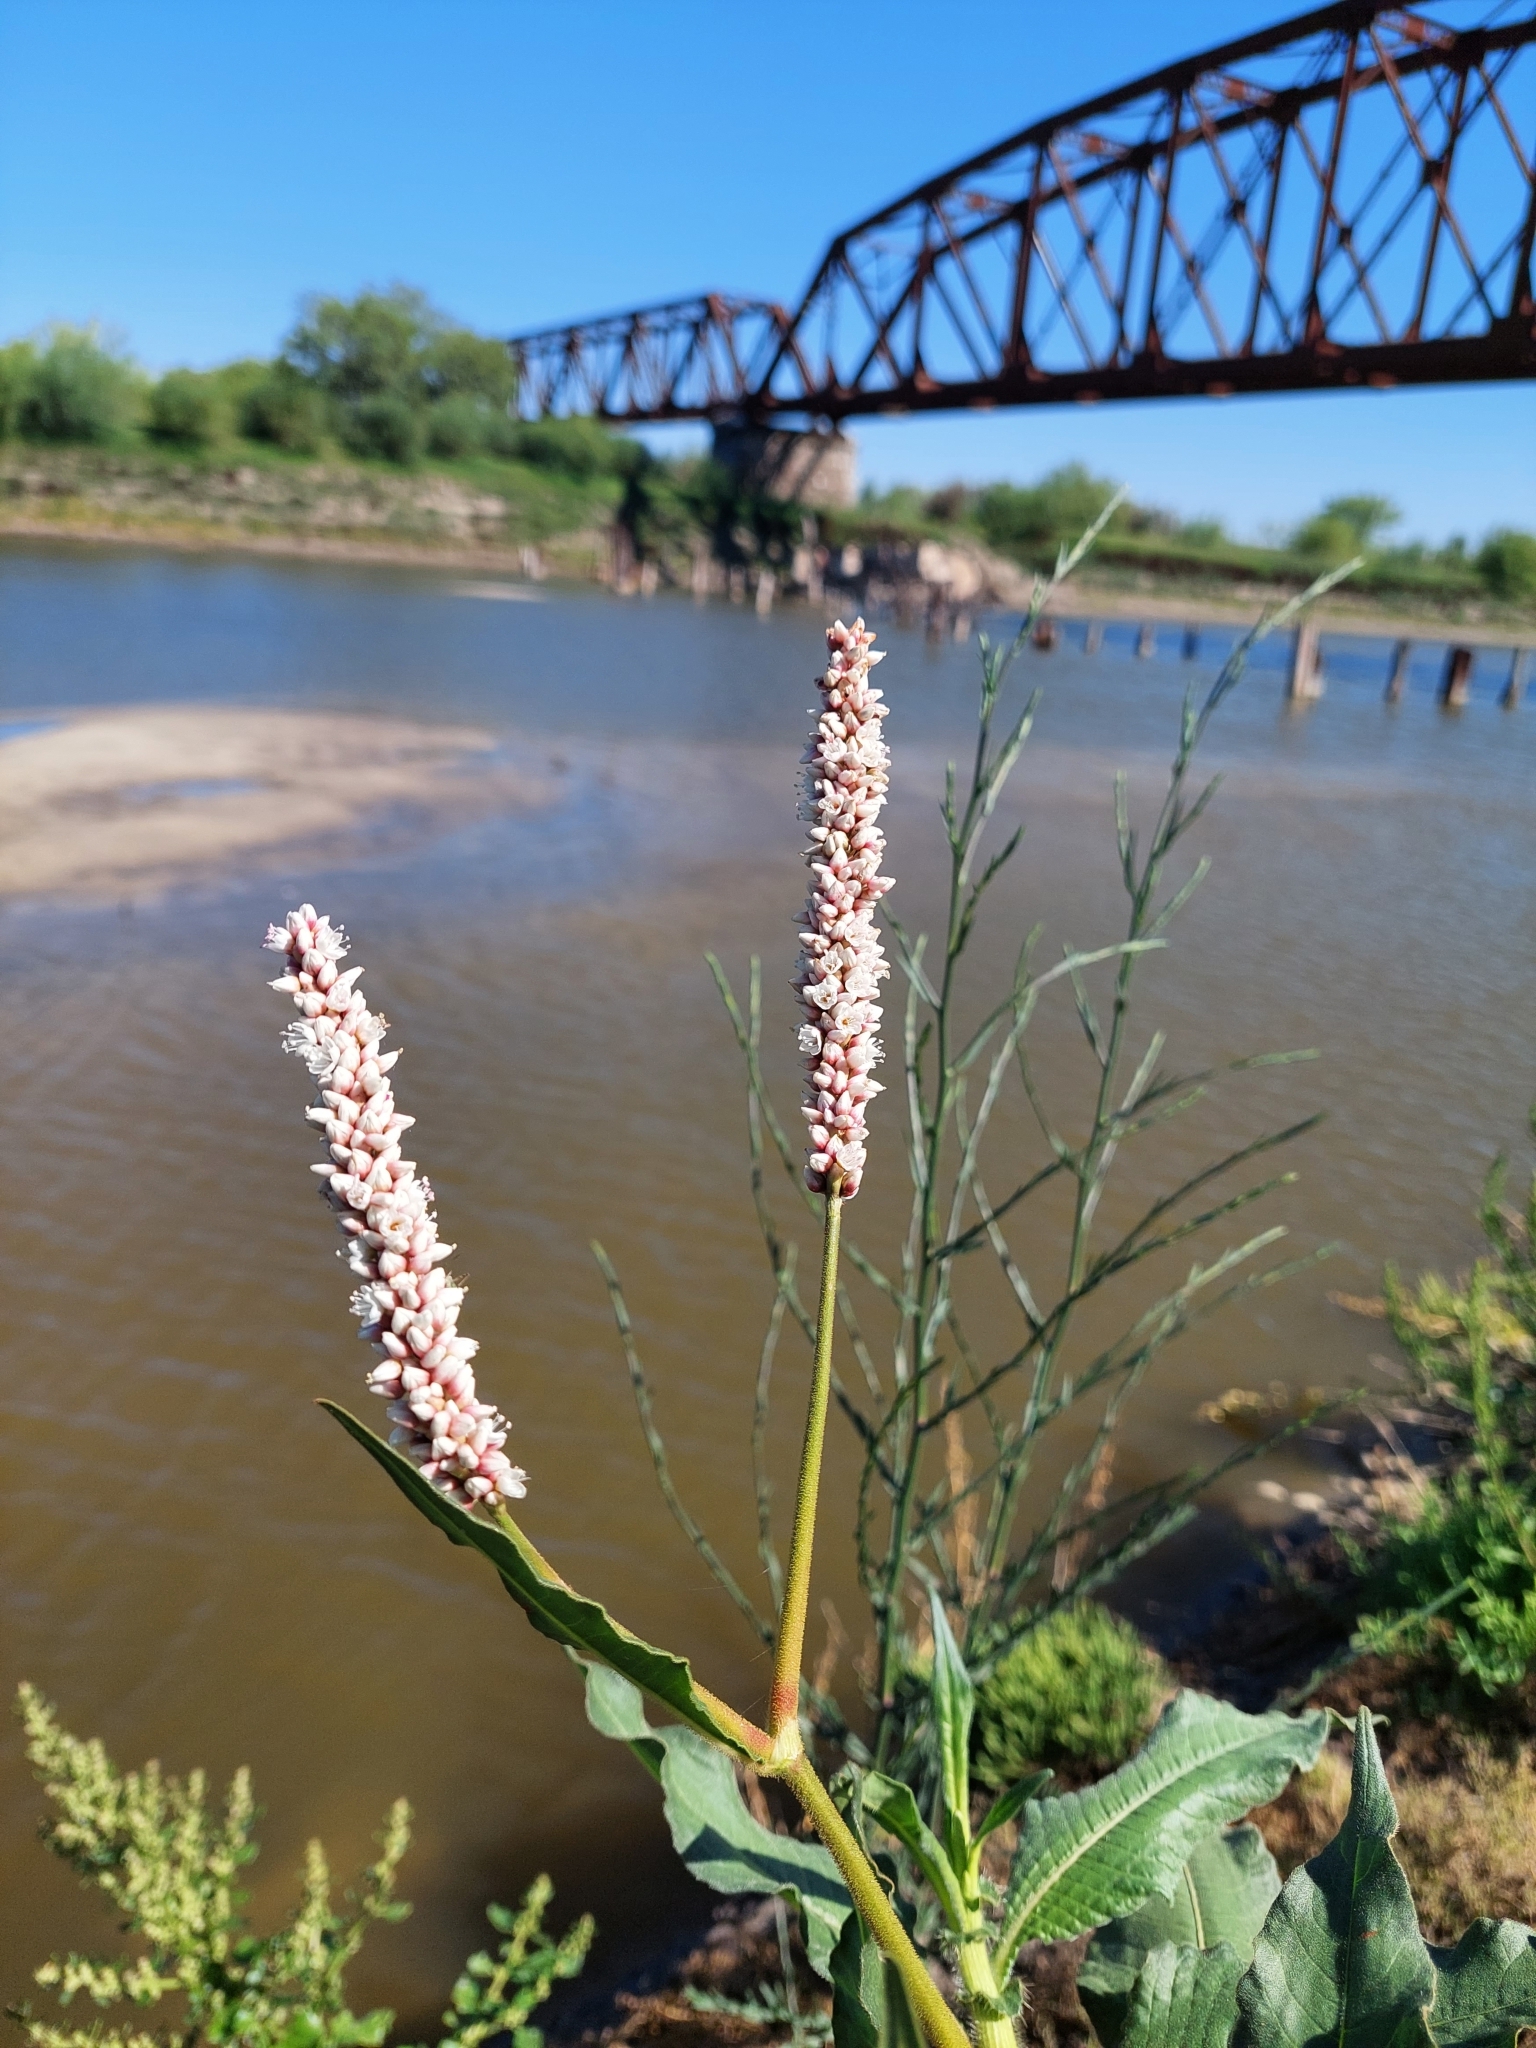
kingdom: Plantae
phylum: Tracheophyta
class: Magnoliopsida
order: Caryophyllales
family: Polygonaceae
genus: Persicaria
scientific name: Persicaria hispida
